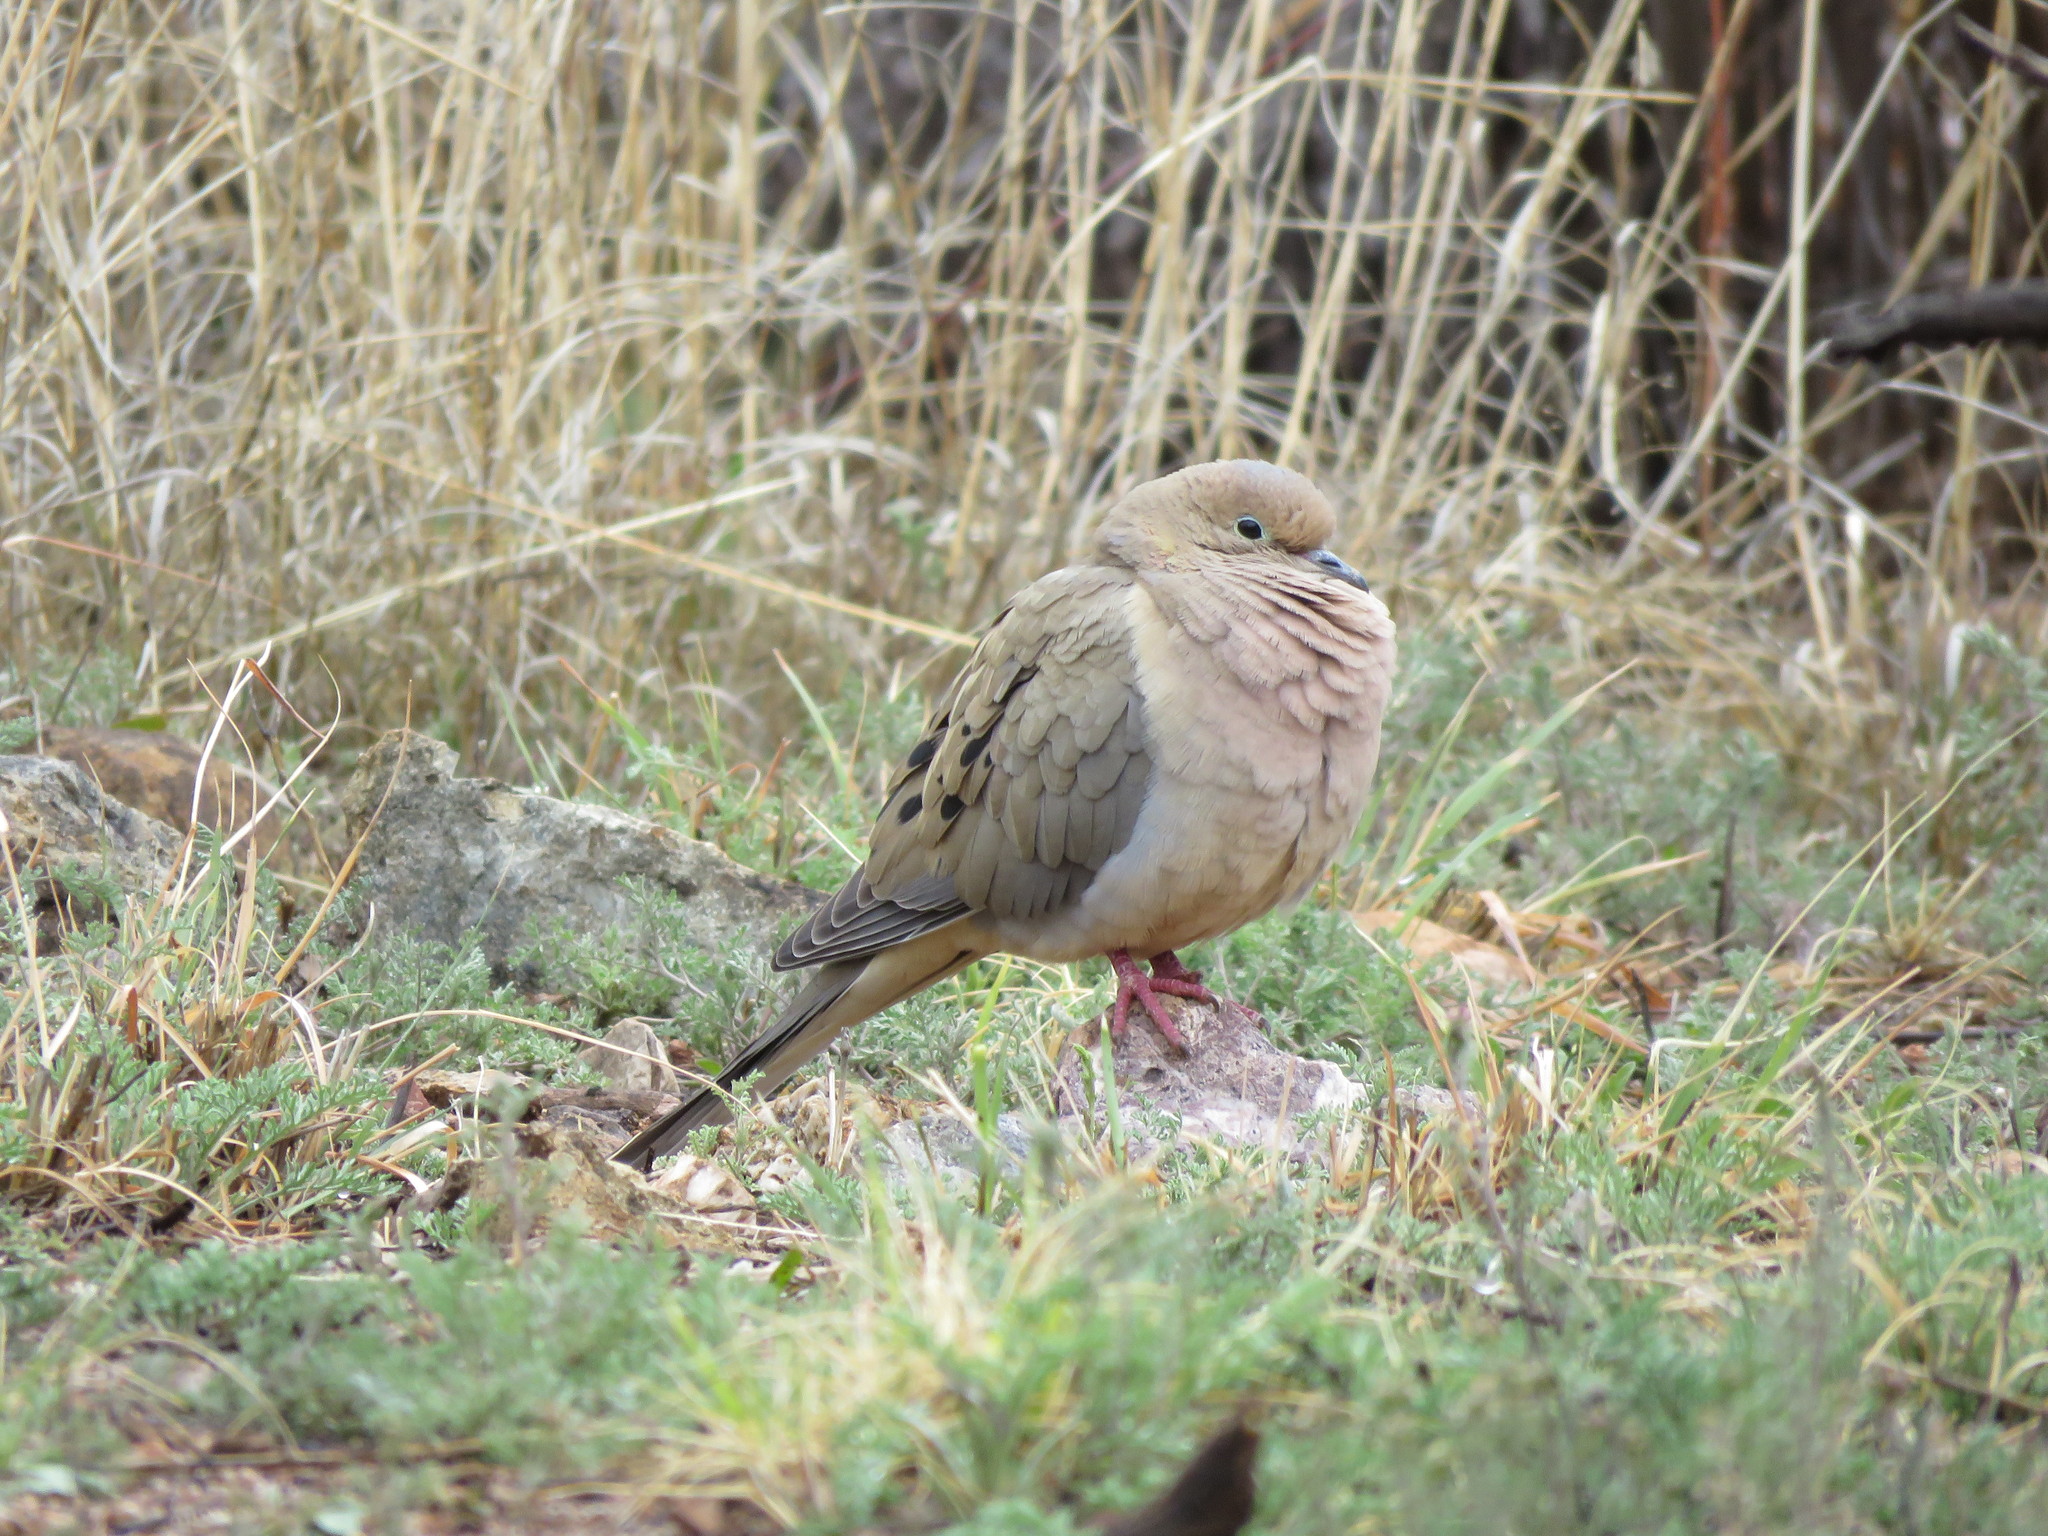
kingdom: Animalia
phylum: Chordata
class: Aves
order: Columbiformes
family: Columbidae
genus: Zenaida
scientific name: Zenaida macroura
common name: Mourning dove
